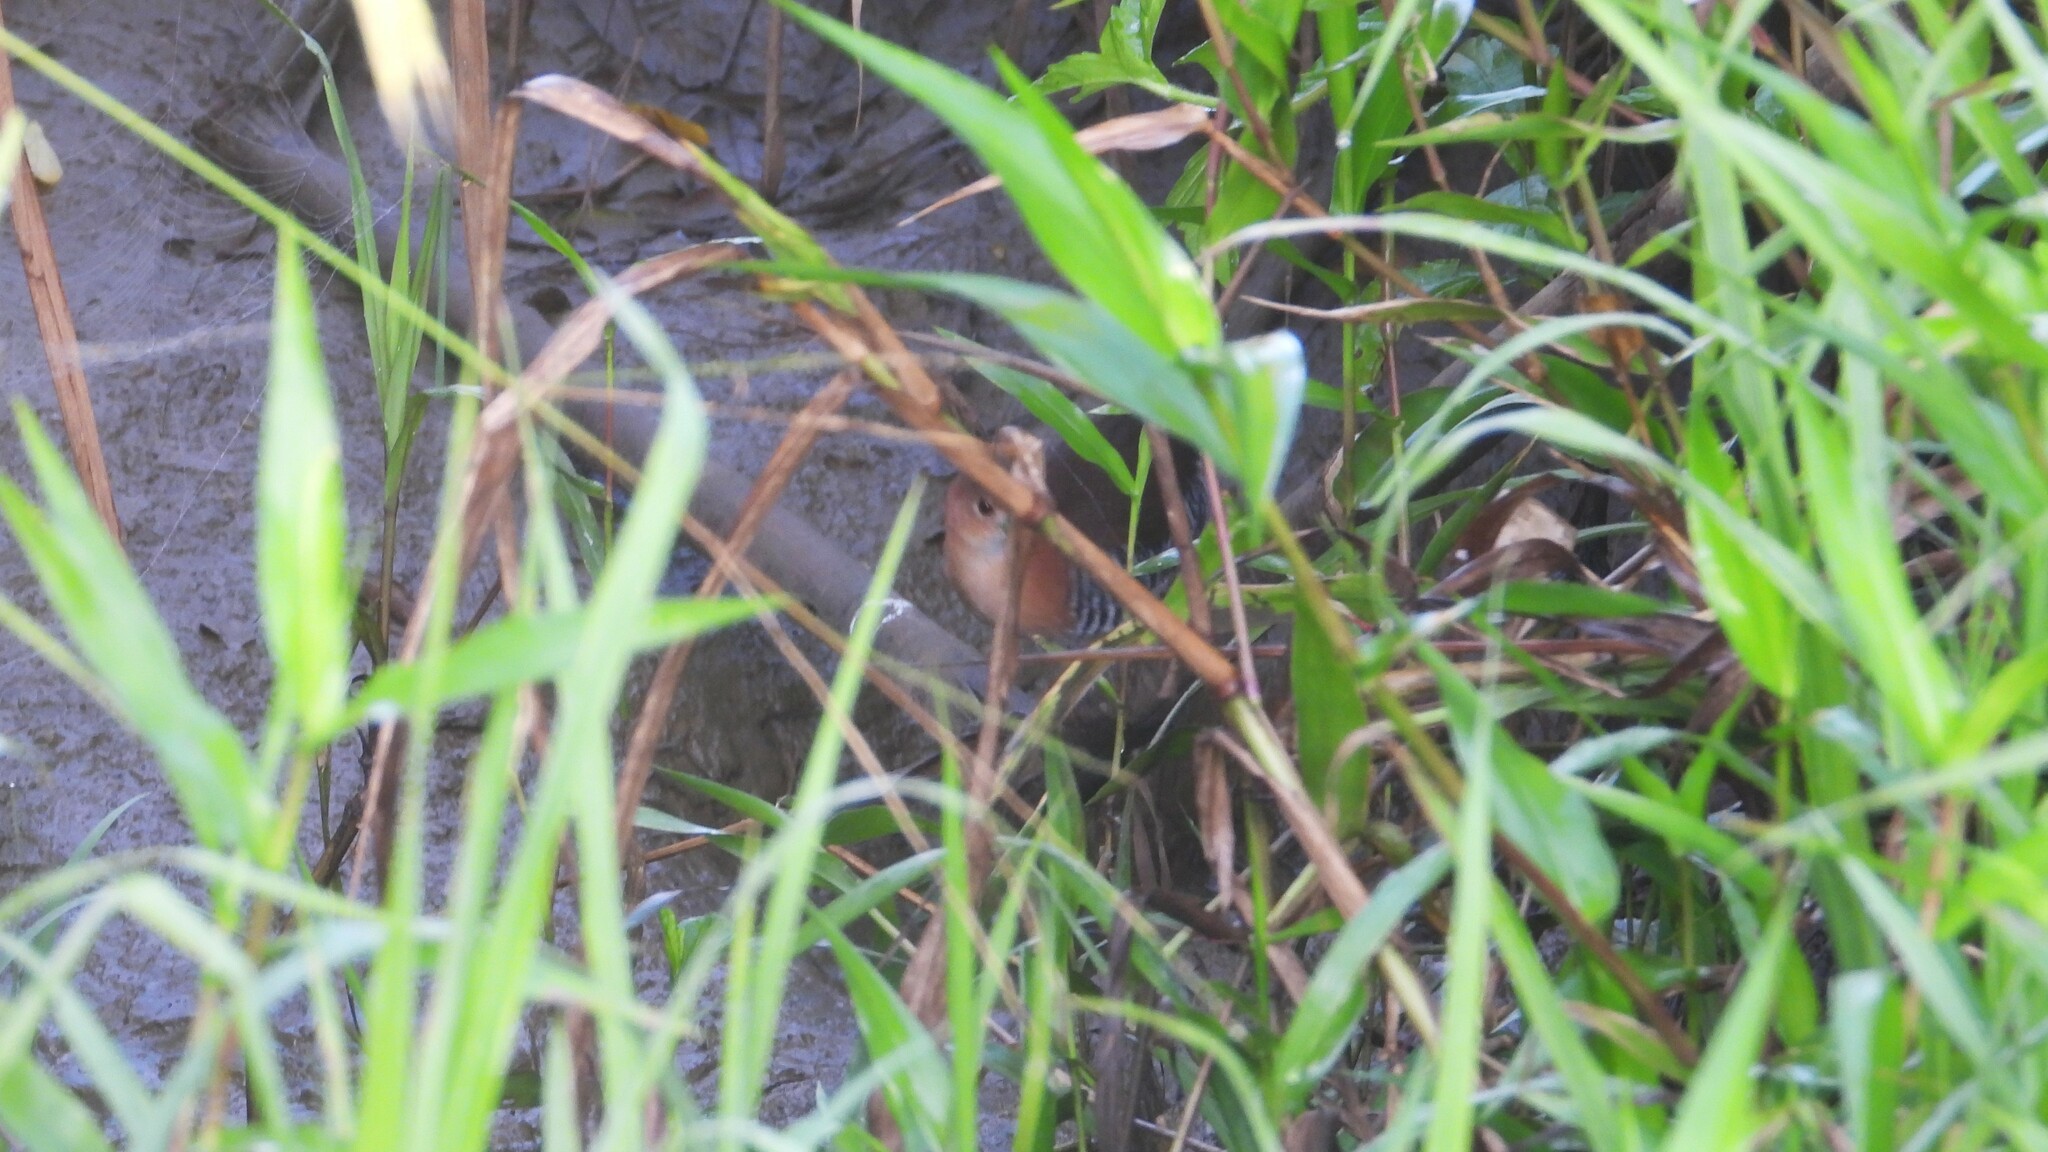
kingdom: Animalia
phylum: Chordata
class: Aves
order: Gruiformes
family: Rallidae
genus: Laterallus
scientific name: Laterallus albigularis
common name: White-throated crake
